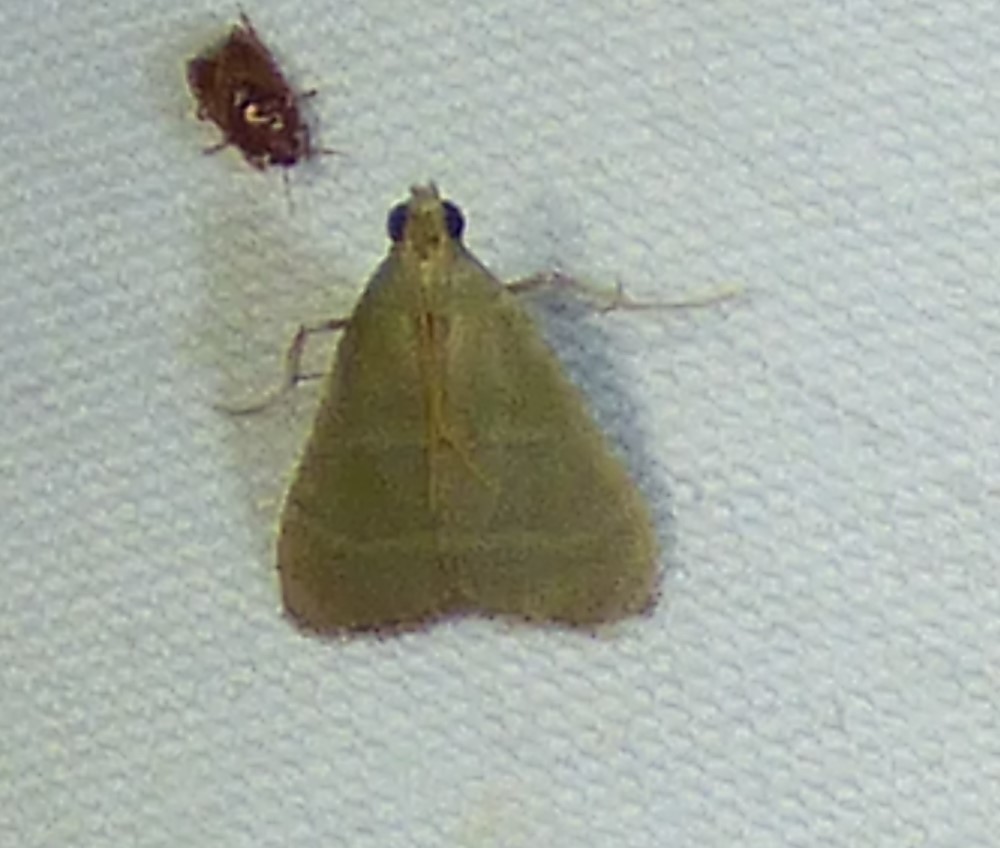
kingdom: Animalia
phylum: Arthropoda
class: Insecta
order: Lepidoptera
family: Pyralidae
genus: Arta
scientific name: Arta olivalis
